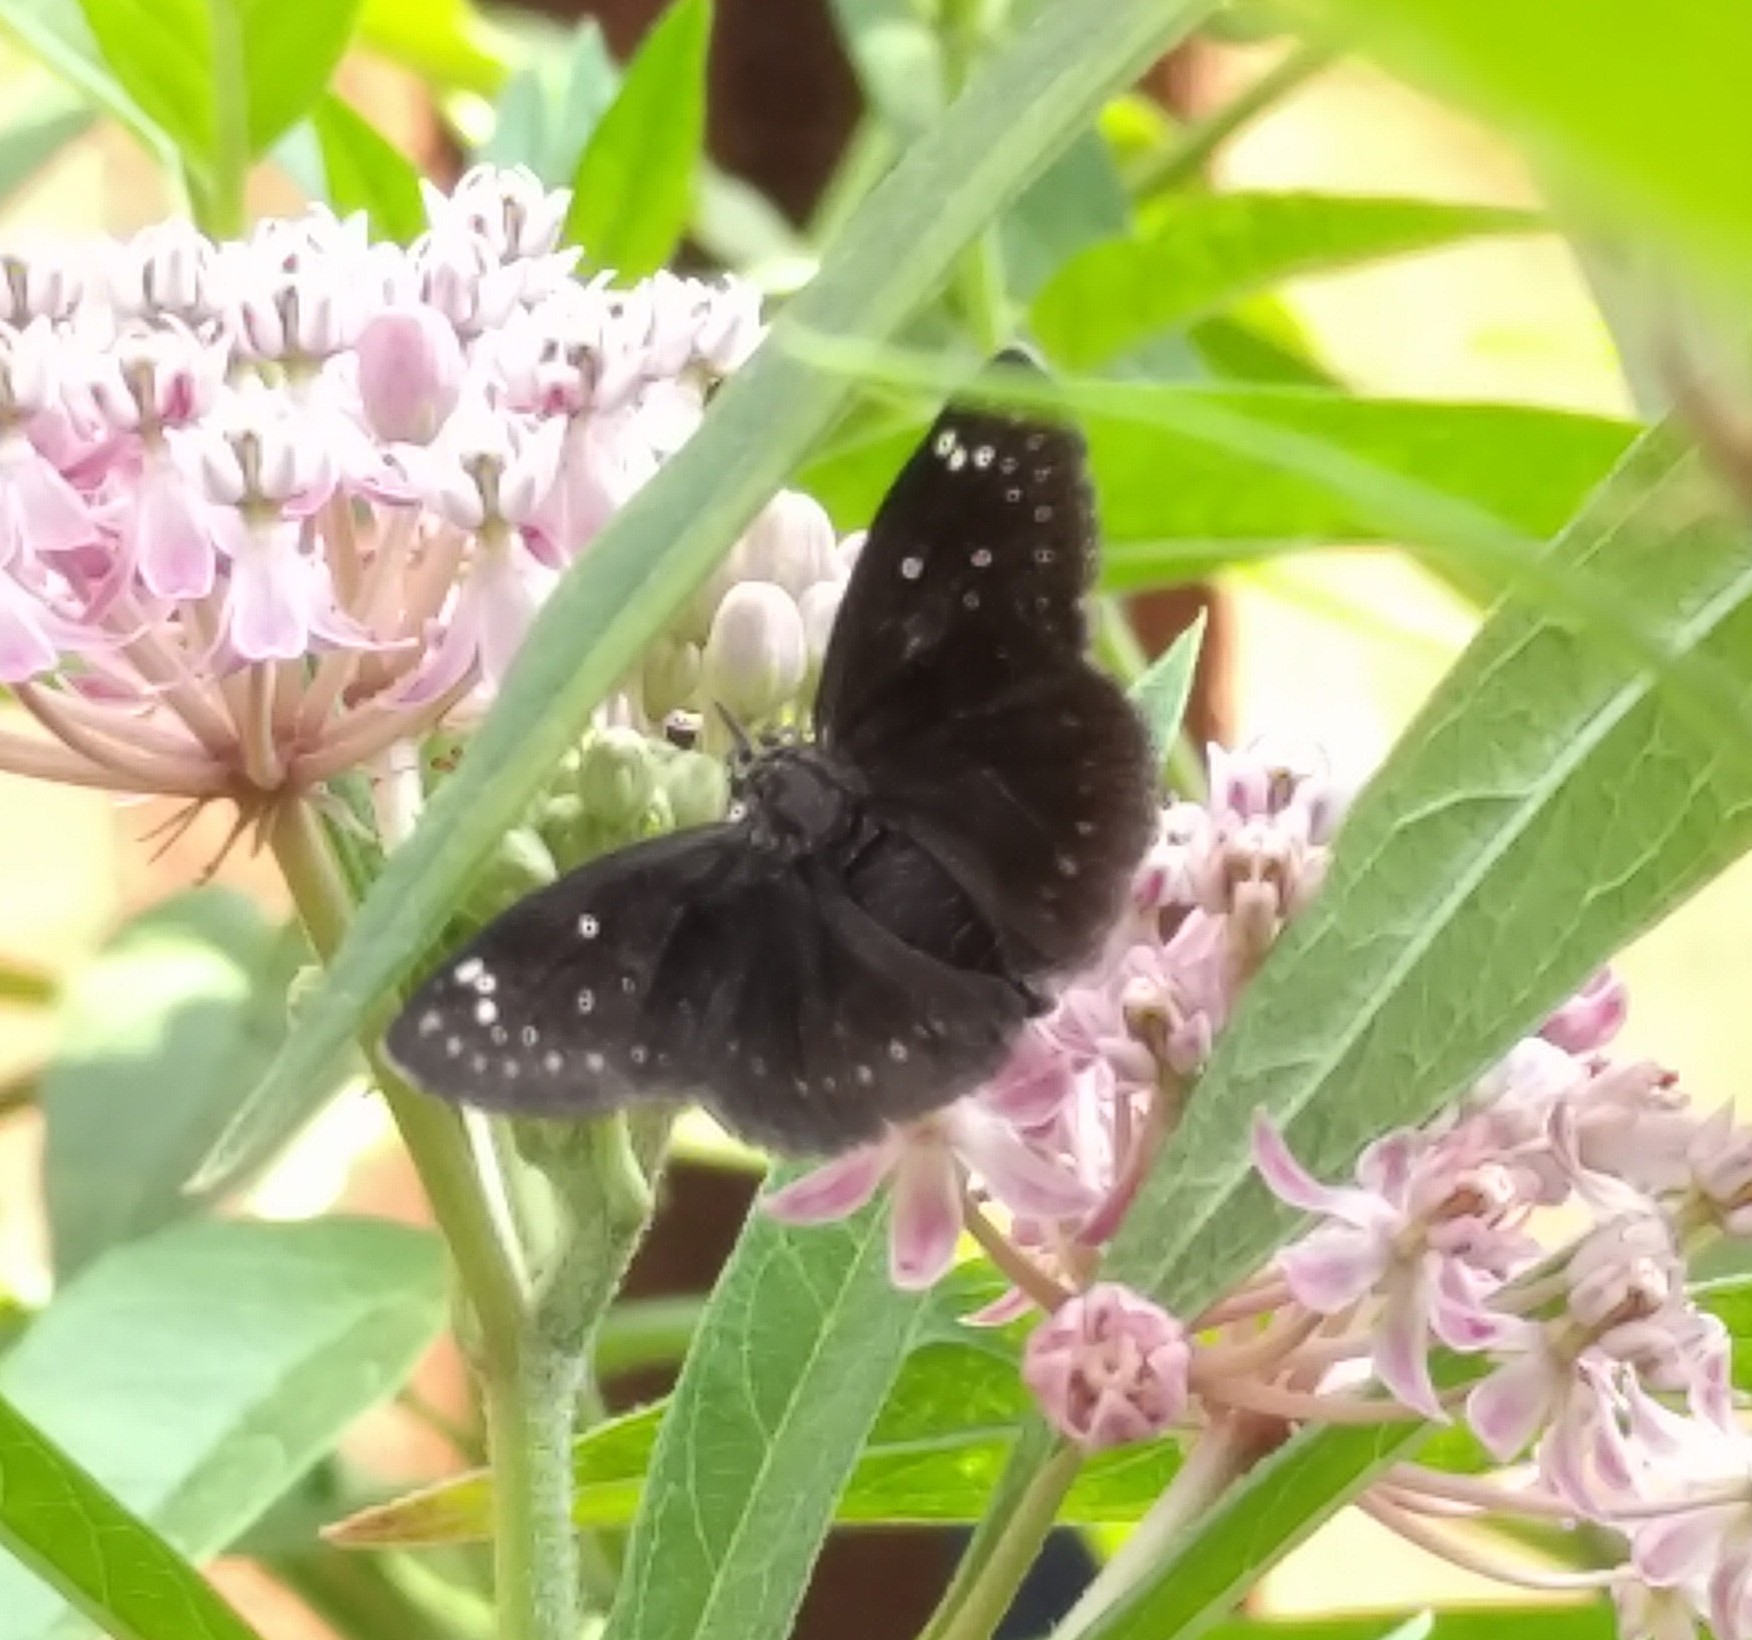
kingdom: Animalia
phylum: Arthropoda
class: Insecta
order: Lepidoptera
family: Hesperiidae
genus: Pholisora
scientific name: Pholisora catullus
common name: Common sootywing
